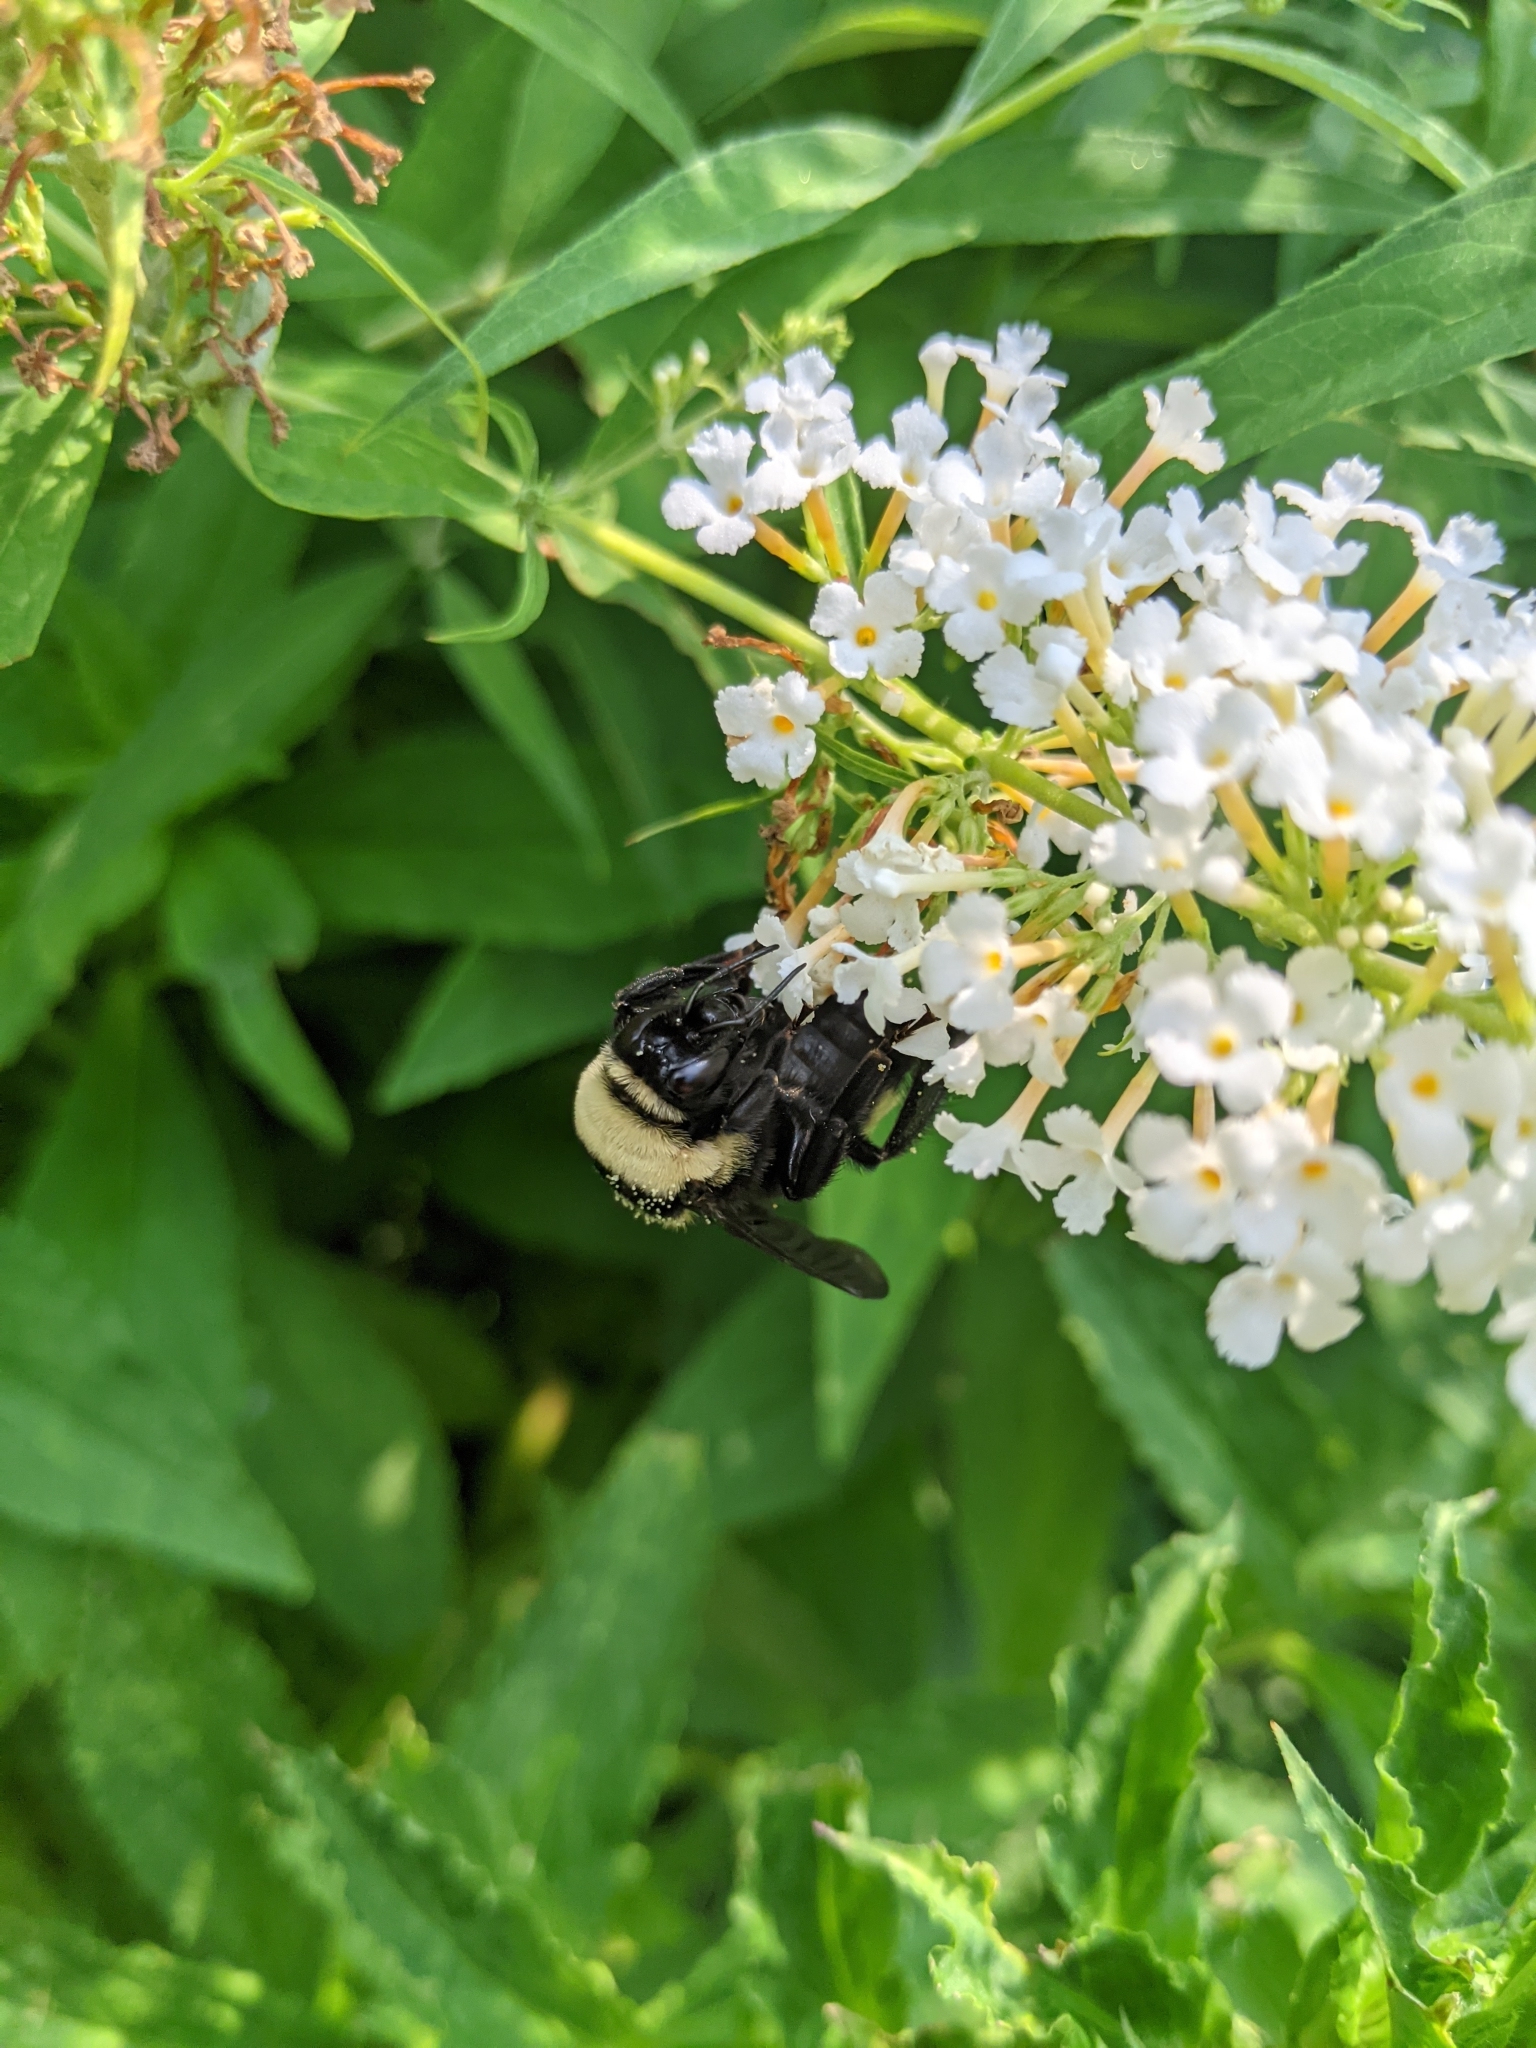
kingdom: Animalia
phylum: Arthropoda
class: Insecta
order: Hymenoptera
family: Apidae
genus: Bombus
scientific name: Bombus auricomus
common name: Black and gold bumble bee
